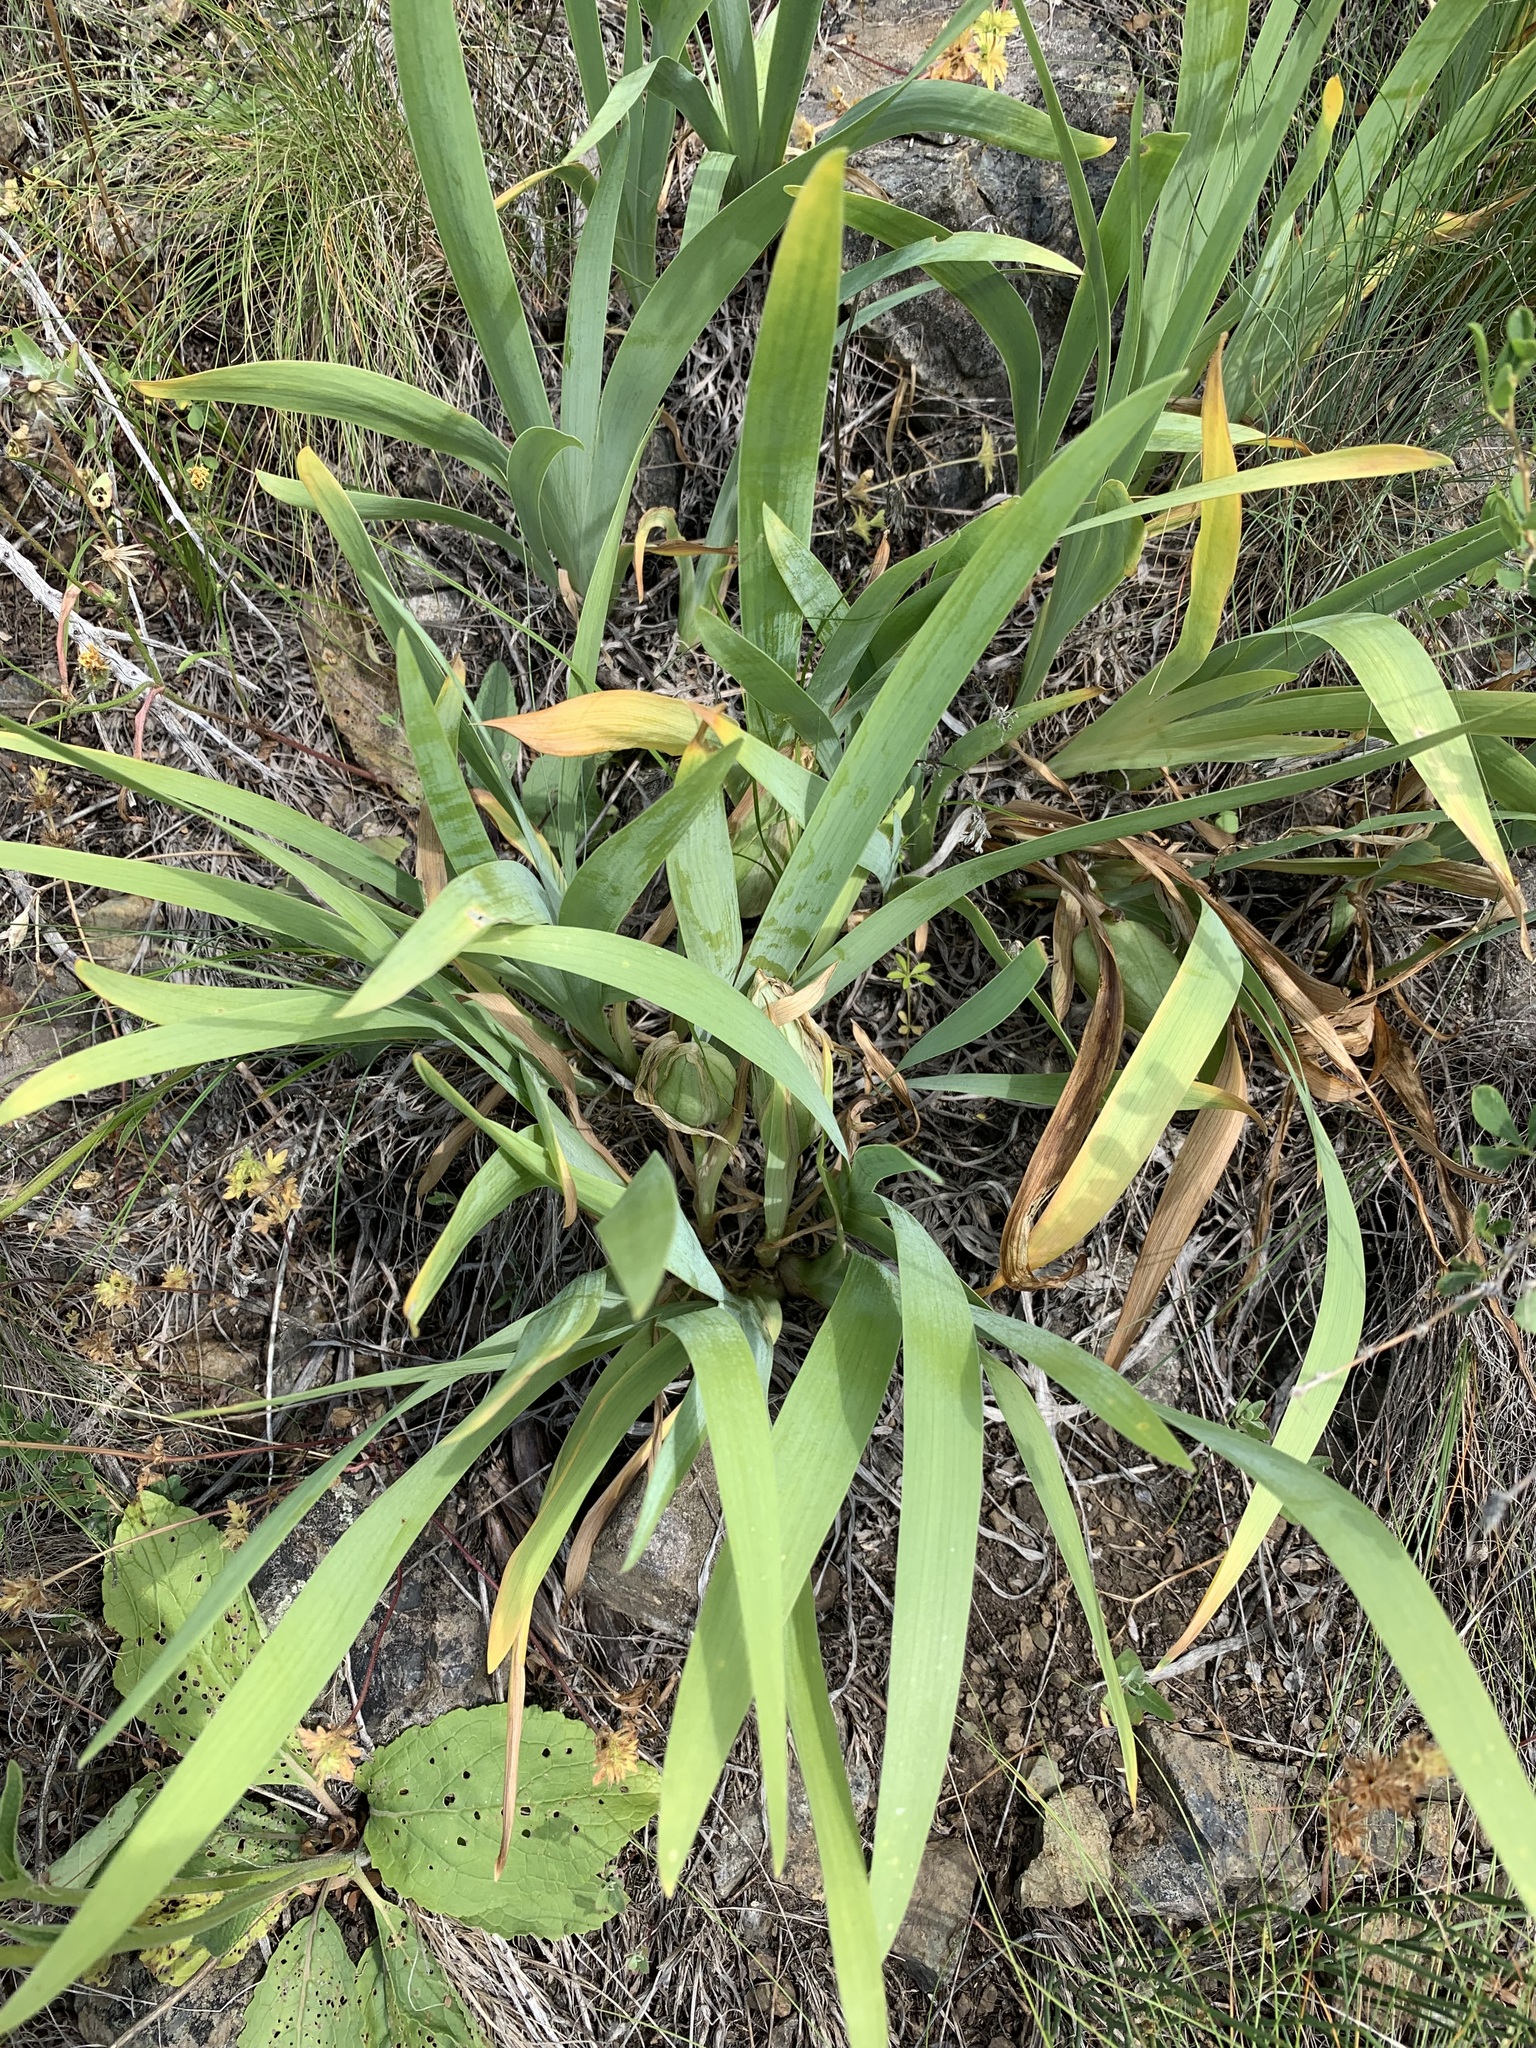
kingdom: Plantae
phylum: Tracheophyta
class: Liliopsida
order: Asparagales
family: Iridaceae
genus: Iris
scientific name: Iris pumila
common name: Dwarf iris
